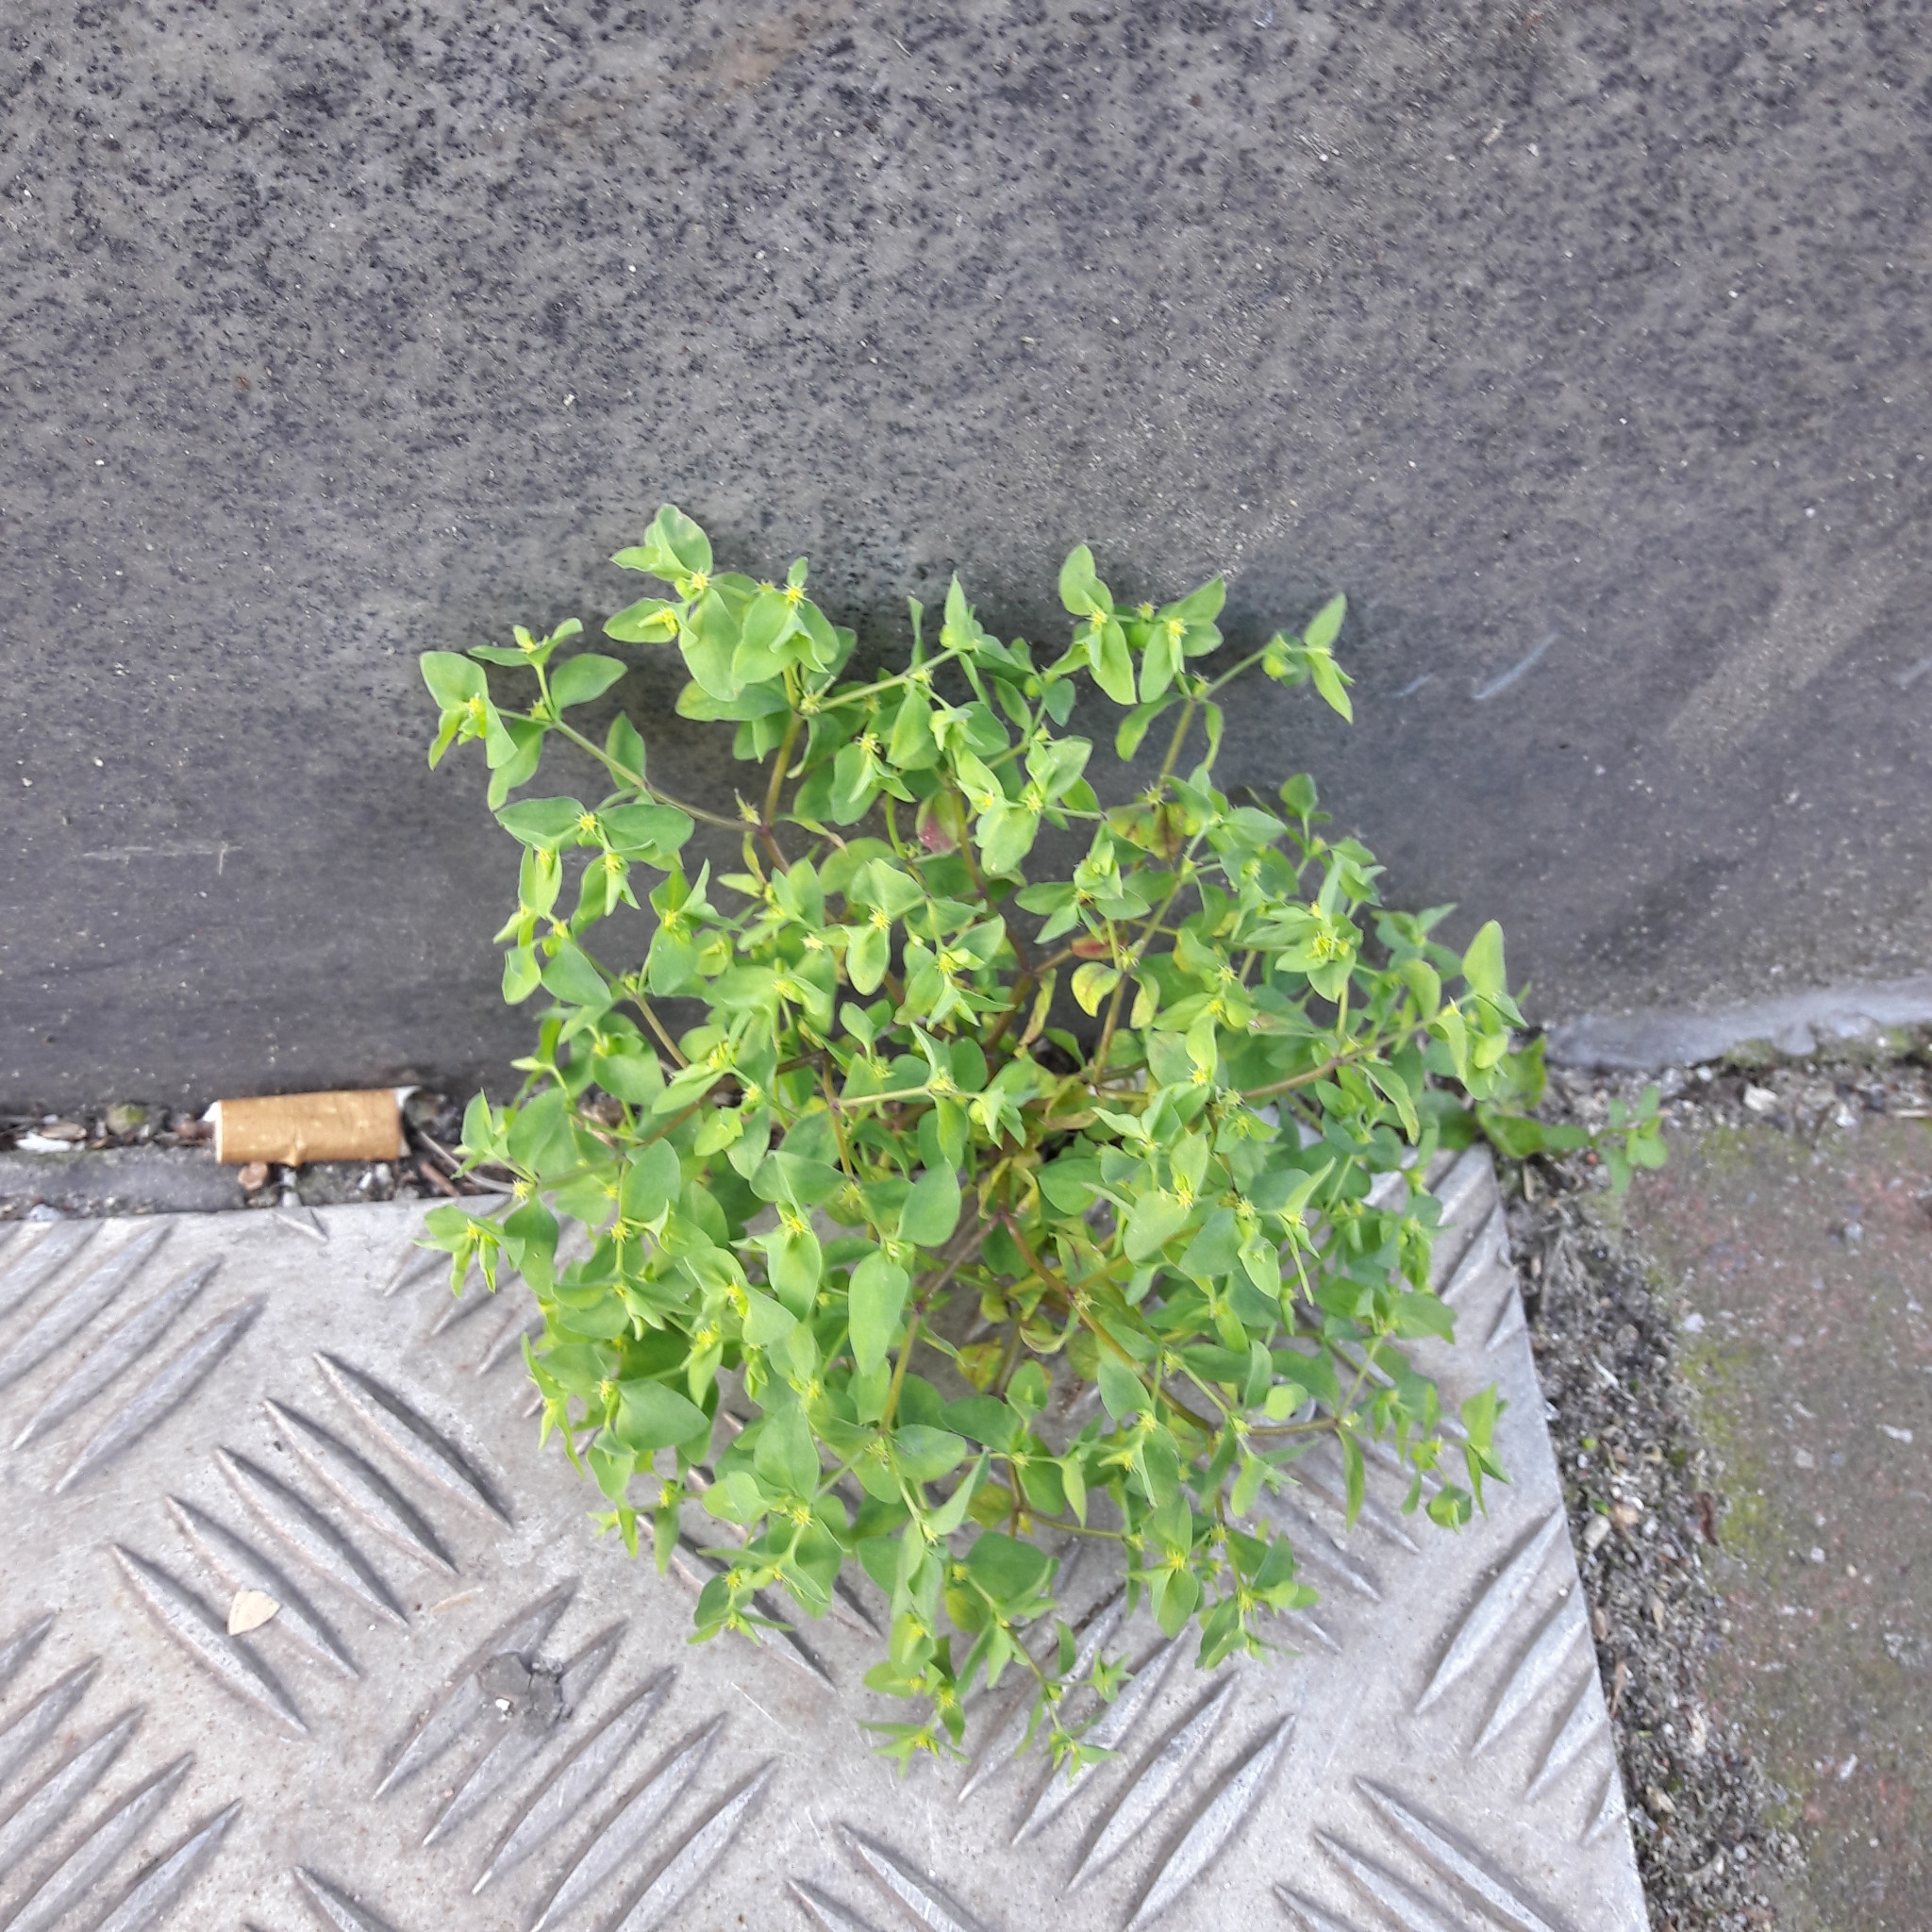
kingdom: Plantae
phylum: Tracheophyta
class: Magnoliopsida
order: Malpighiales
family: Euphorbiaceae
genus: Euphorbia
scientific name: Euphorbia peplus
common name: Petty spurge
